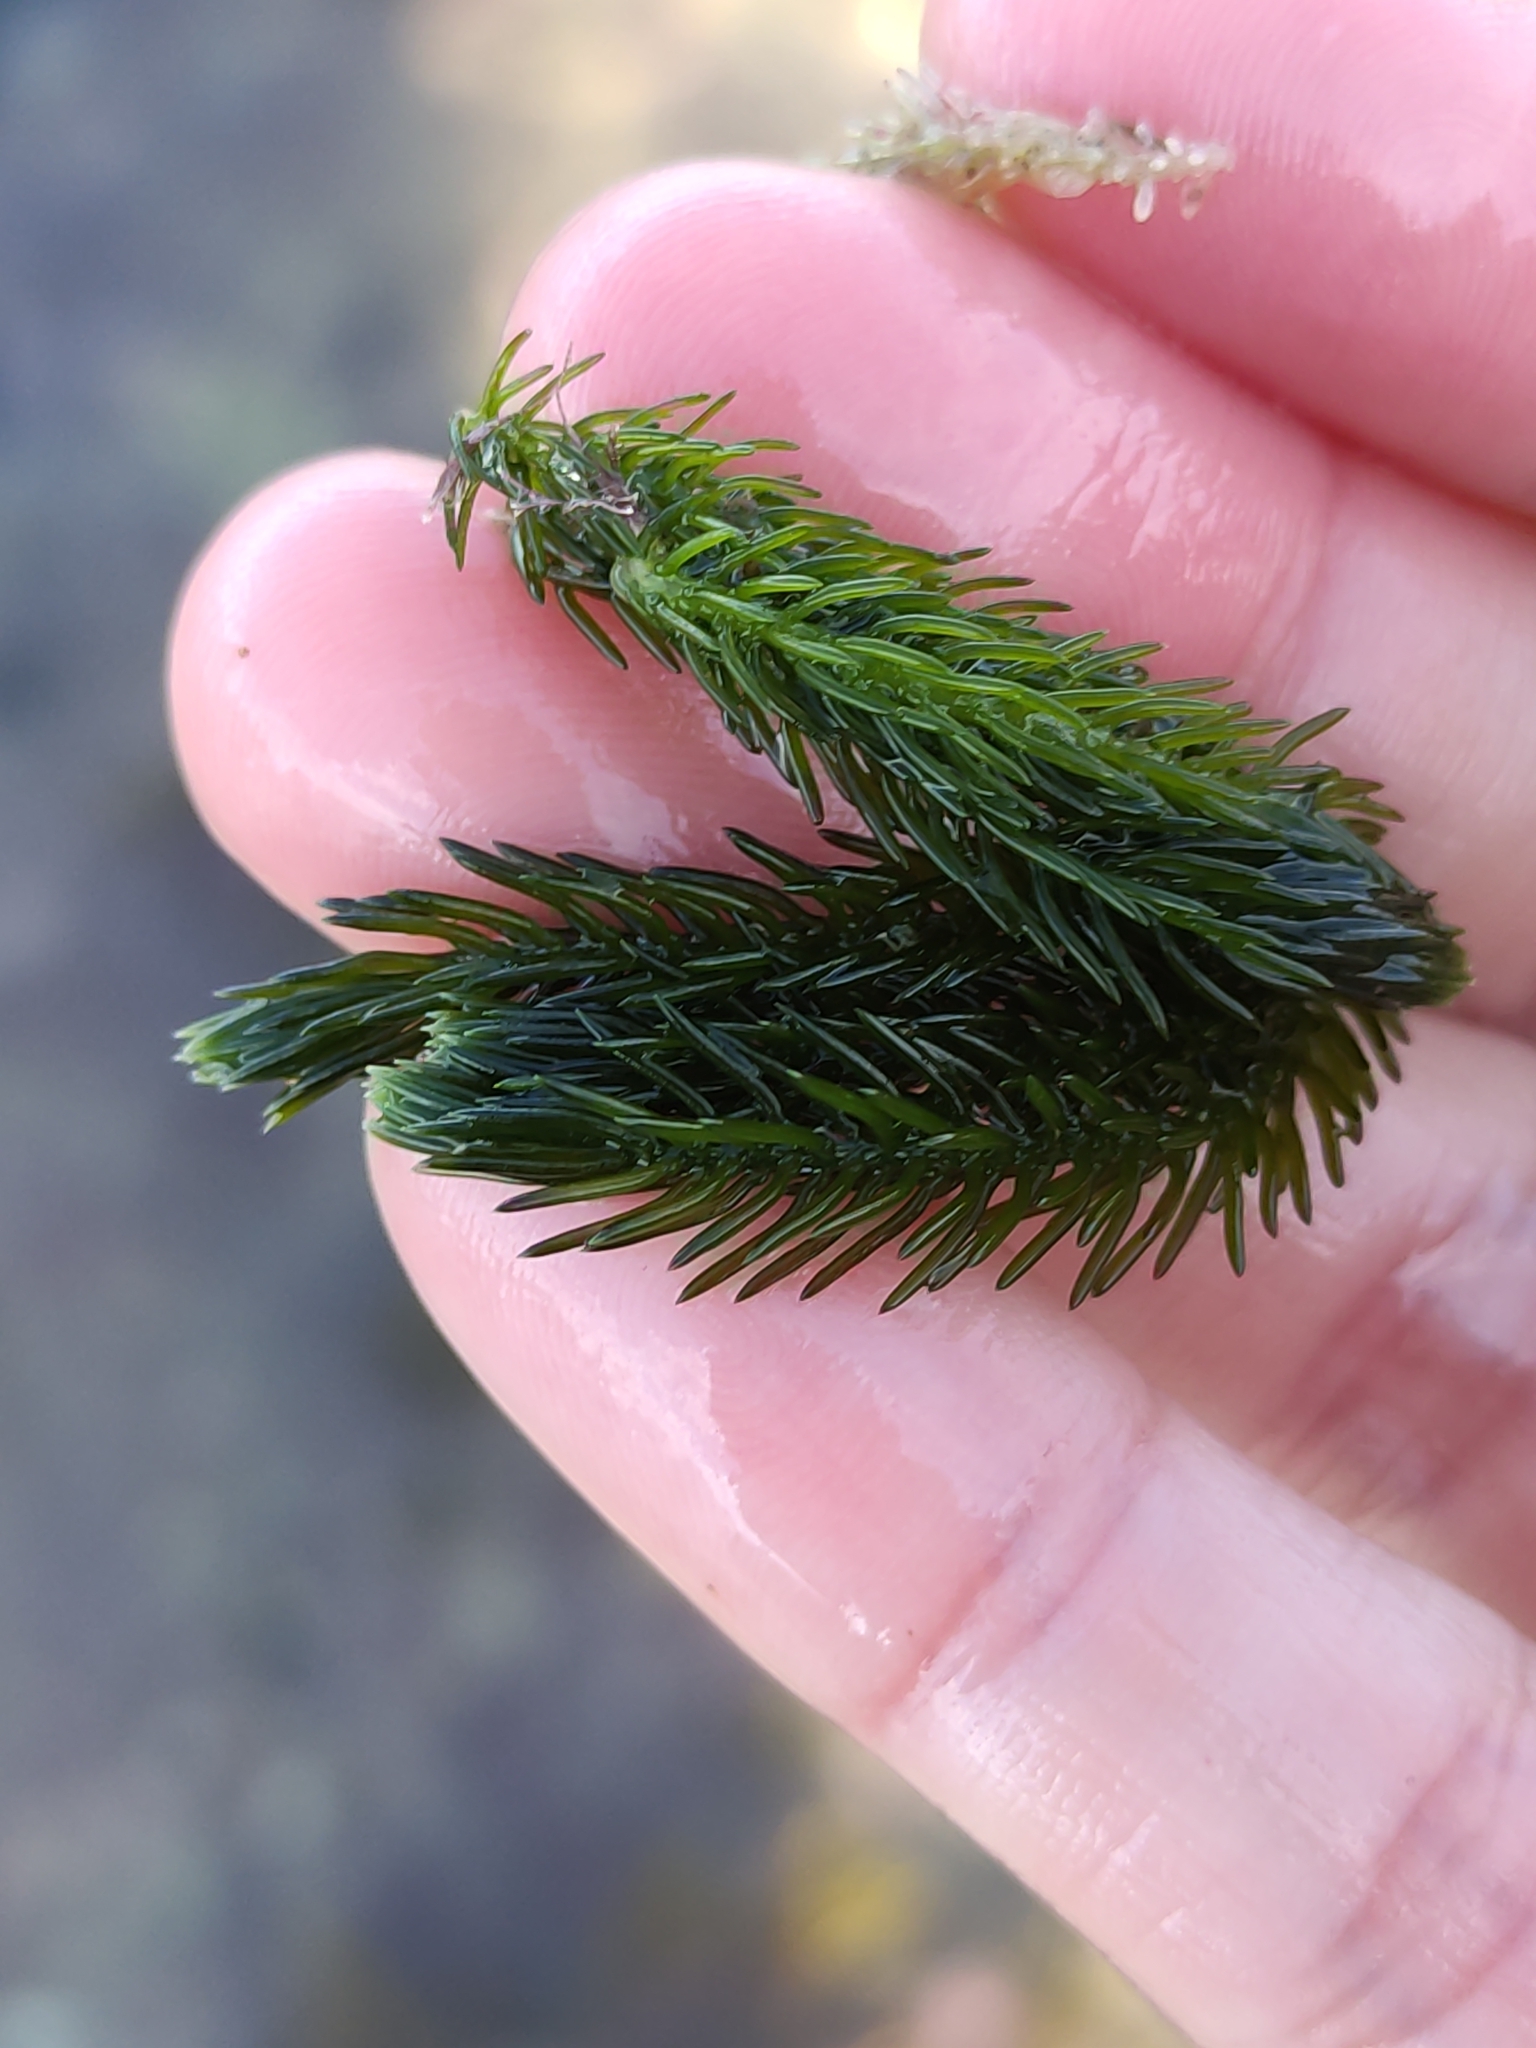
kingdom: Plantae
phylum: Chlorophyta
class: Ulvophyceae
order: Bryopsidales
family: Caulerpaceae
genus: Caulerpa
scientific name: Caulerpa brownii
